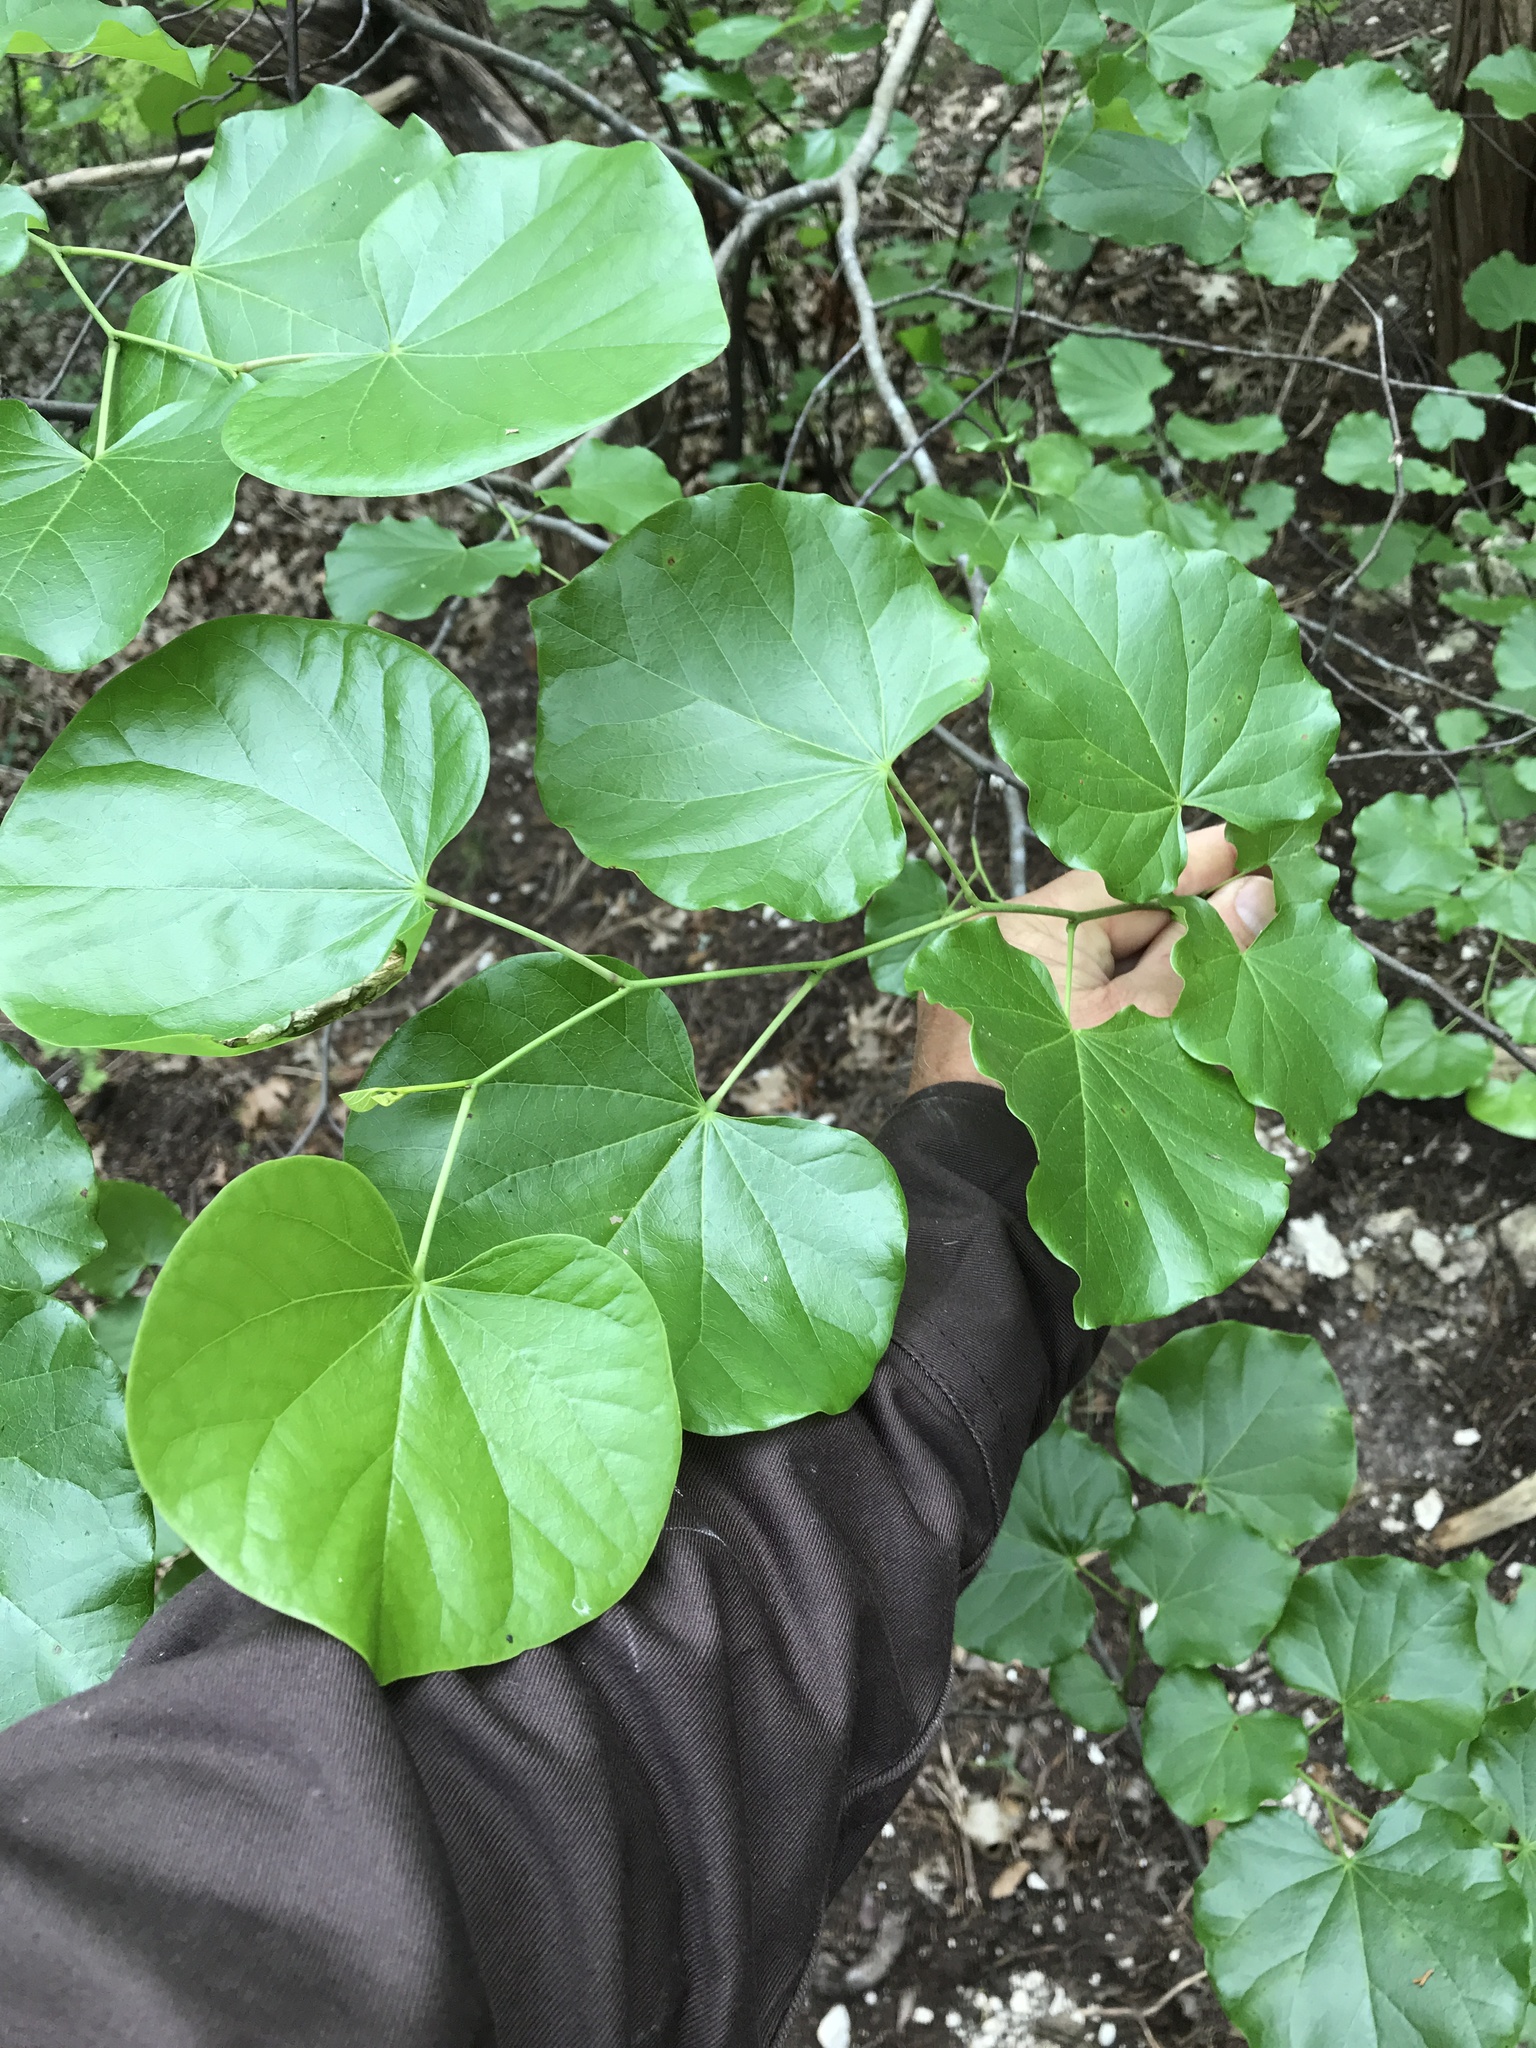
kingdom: Plantae
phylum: Tracheophyta
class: Magnoliopsida
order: Fabales
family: Fabaceae
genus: Cercis
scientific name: Cercis canadensis
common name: Eastern redbud
